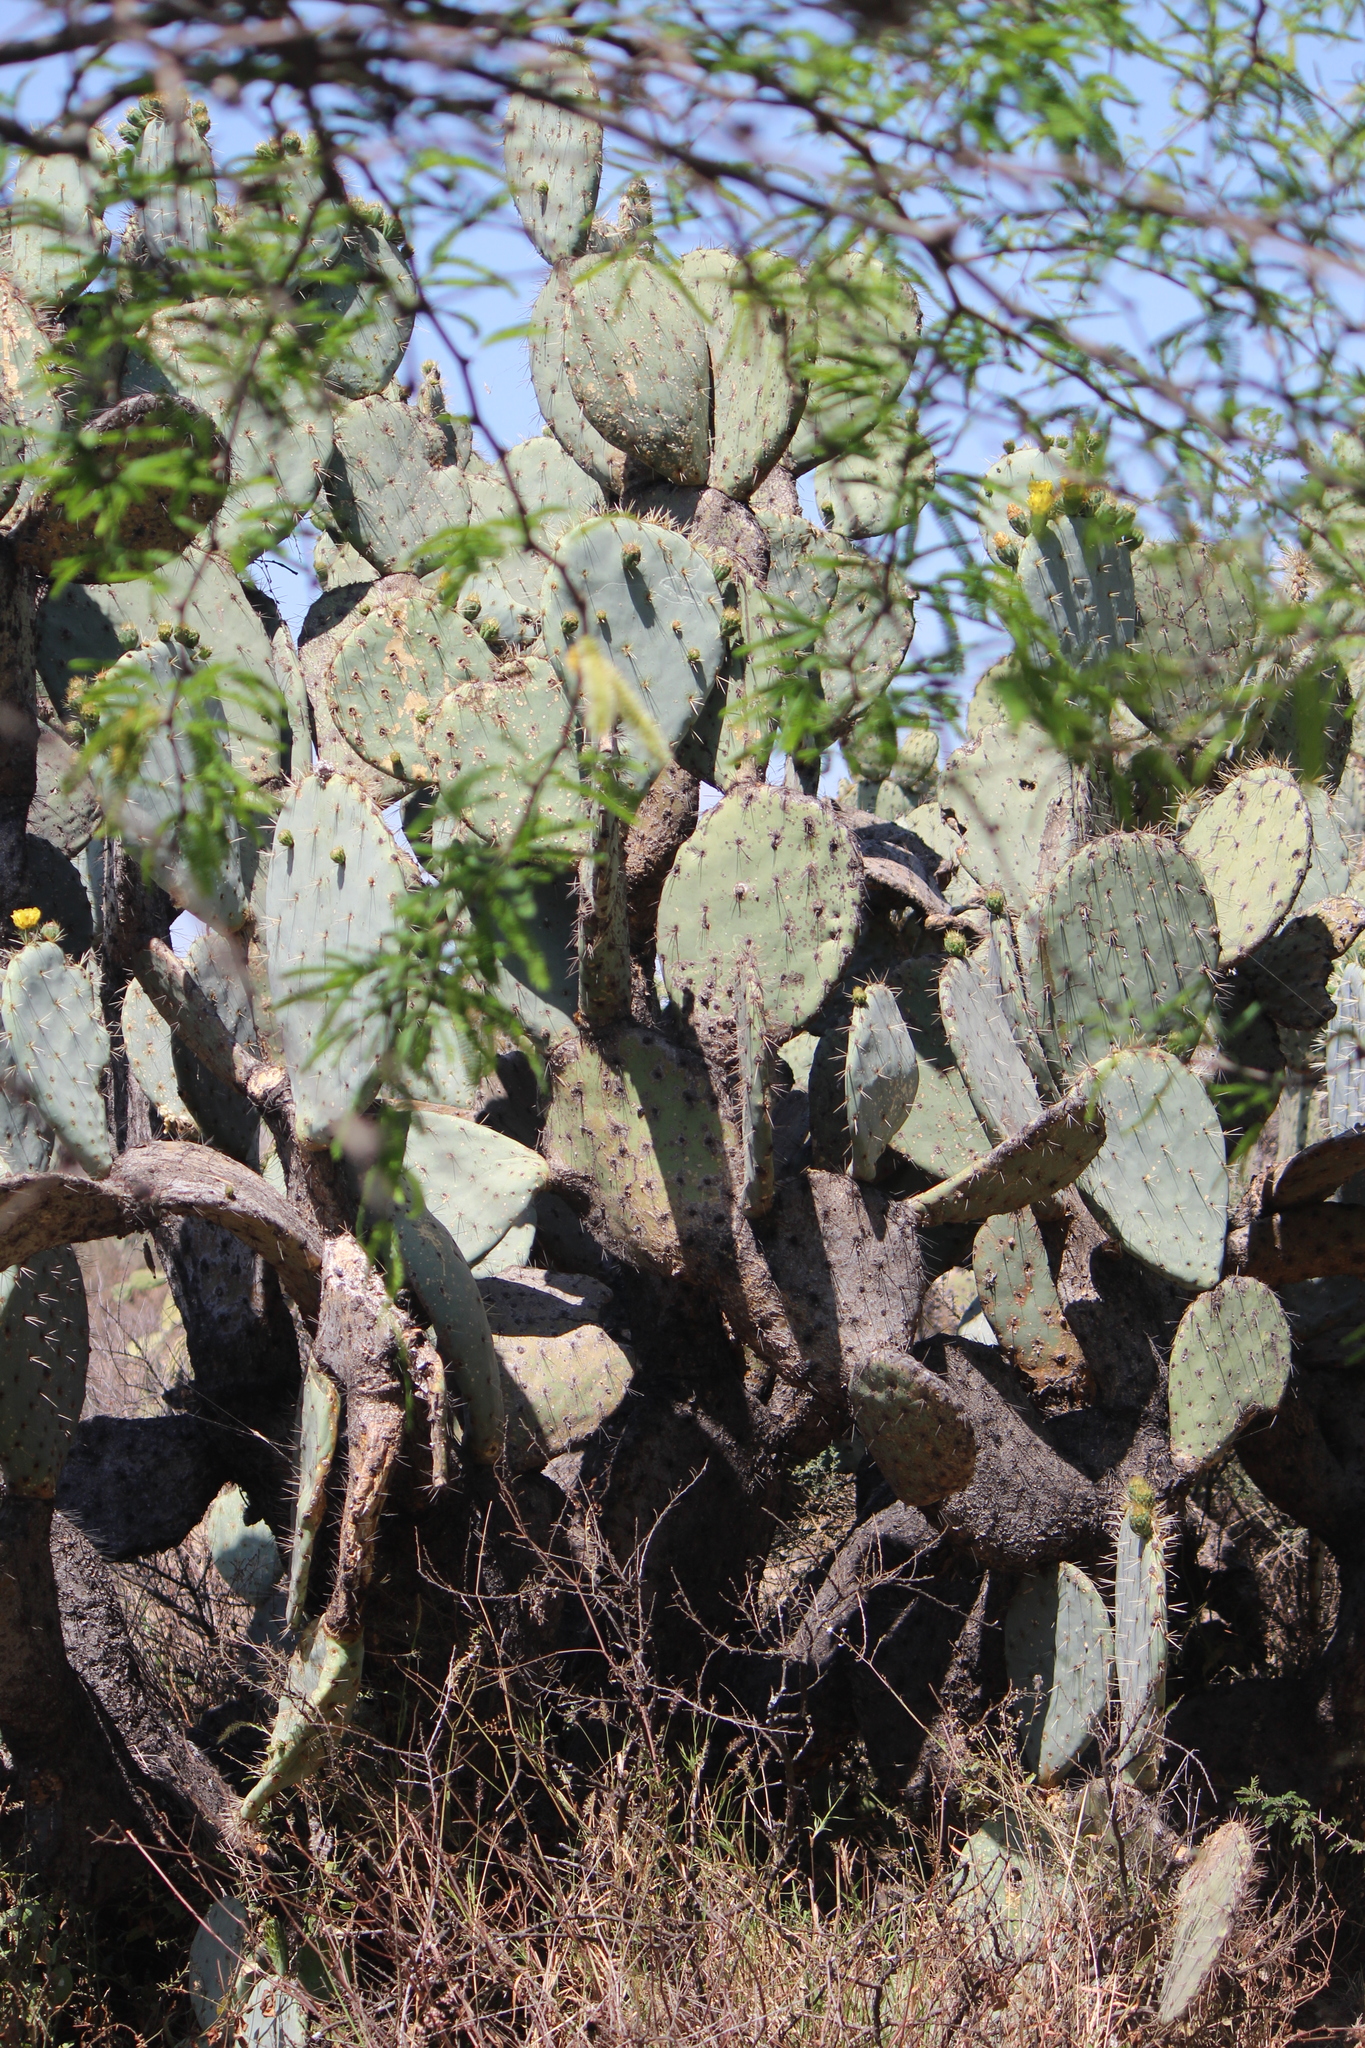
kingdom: Plantae
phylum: Tracheophyta
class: Magnoliopsida
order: Caryophyllales
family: Cactaceae
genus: Opuntia
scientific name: Opuntia robusta
